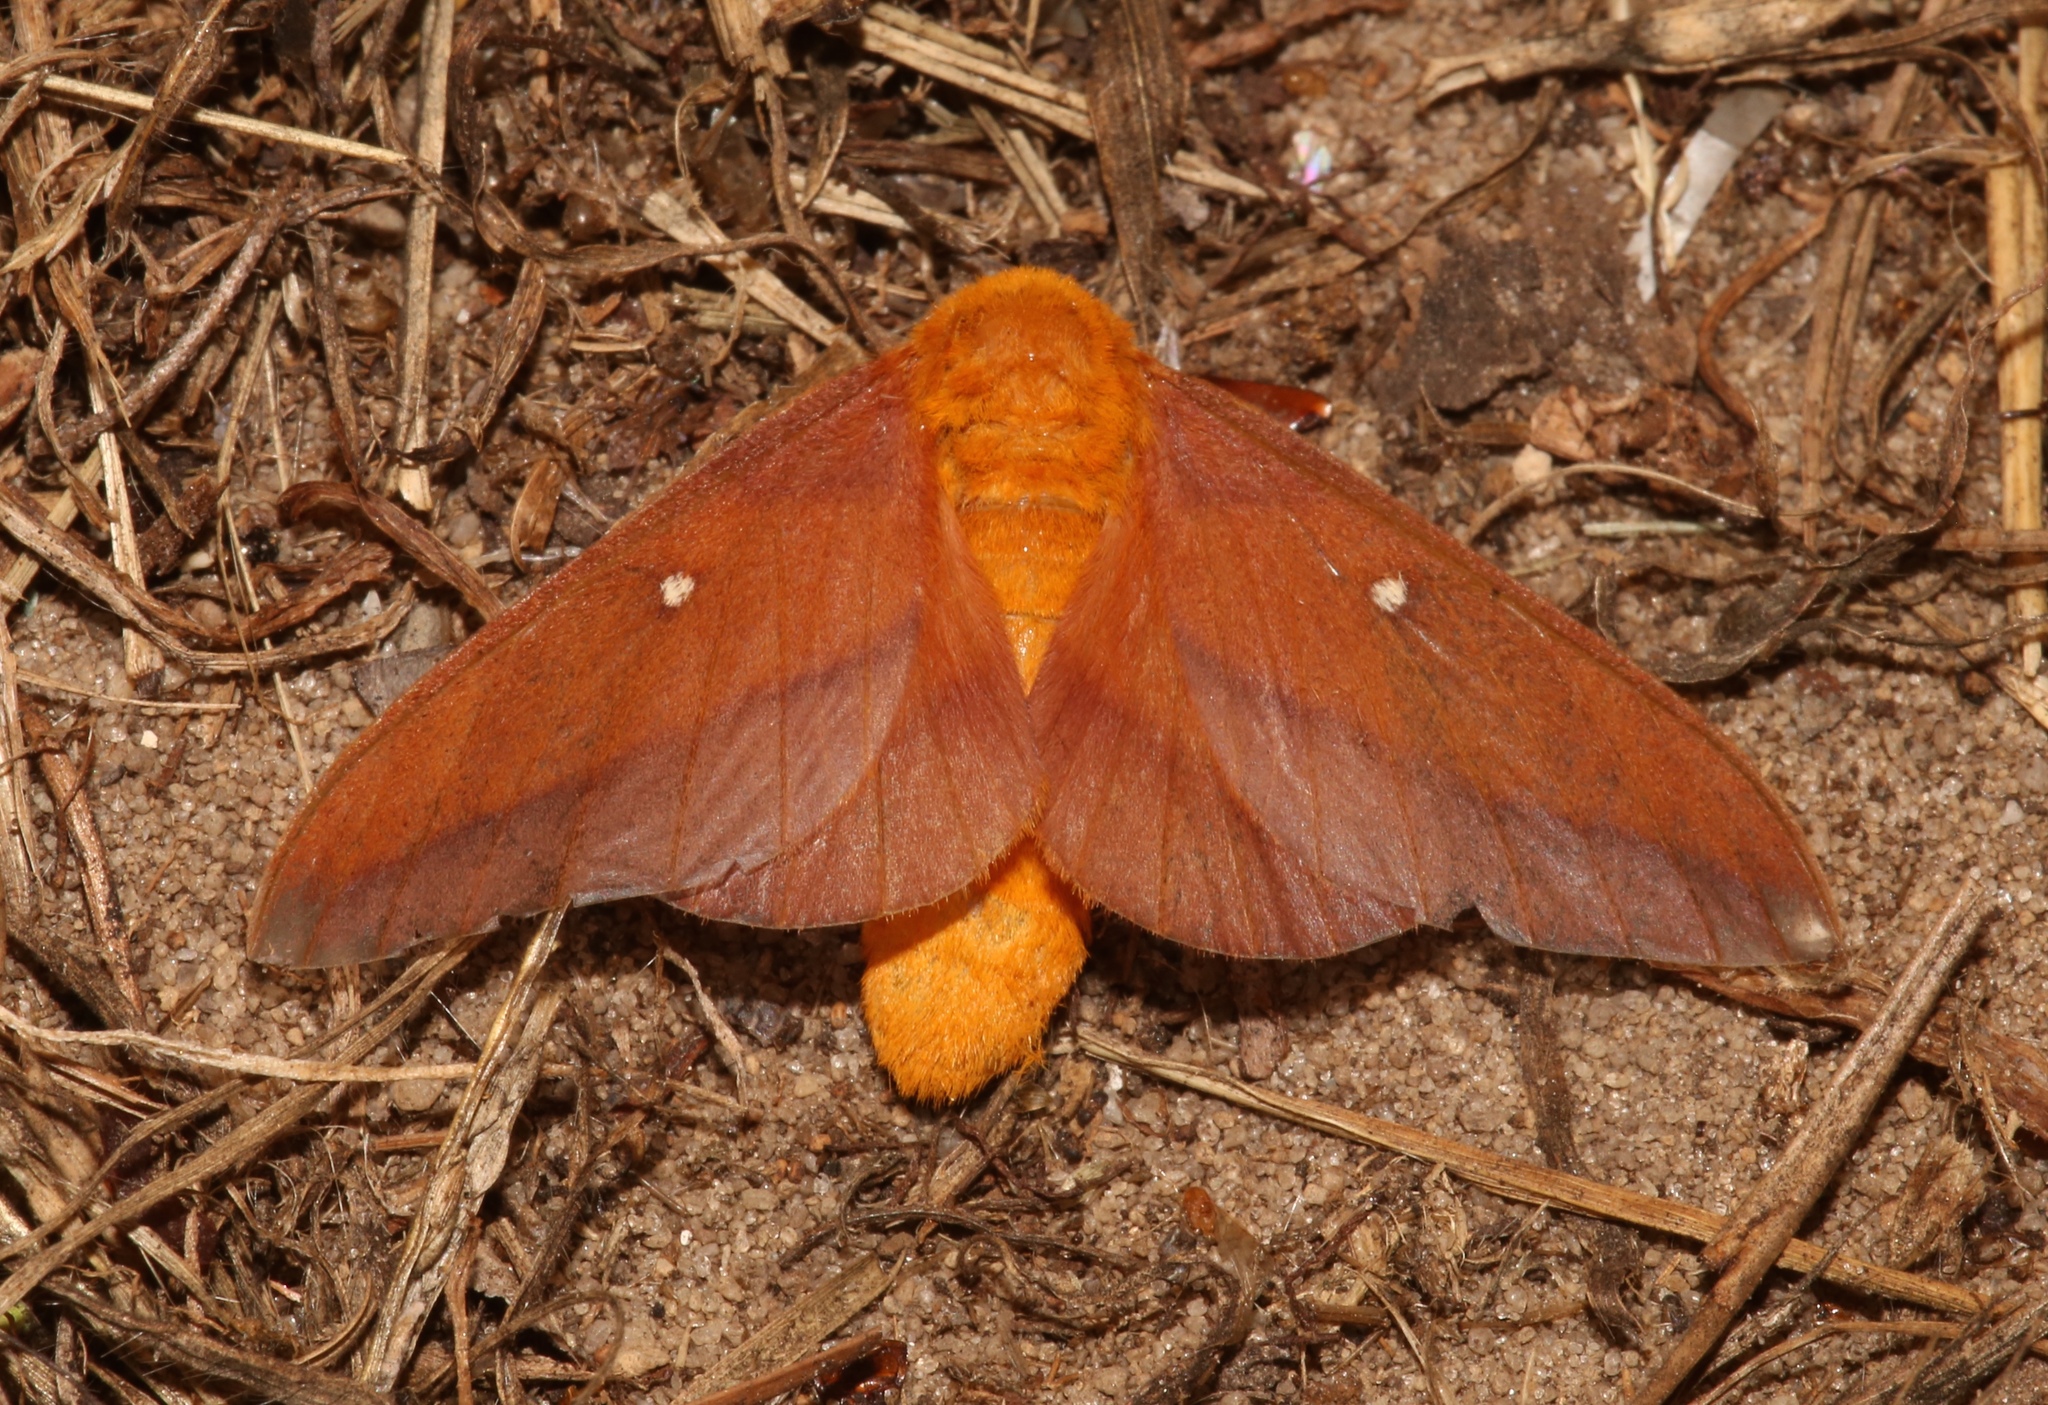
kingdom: Animalia
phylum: Arthropoda
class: Insecta
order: Lepidoptera
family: Saturniidae
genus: Anisota
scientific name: Anisota virginiensis
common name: Pink striped oakworm moth
